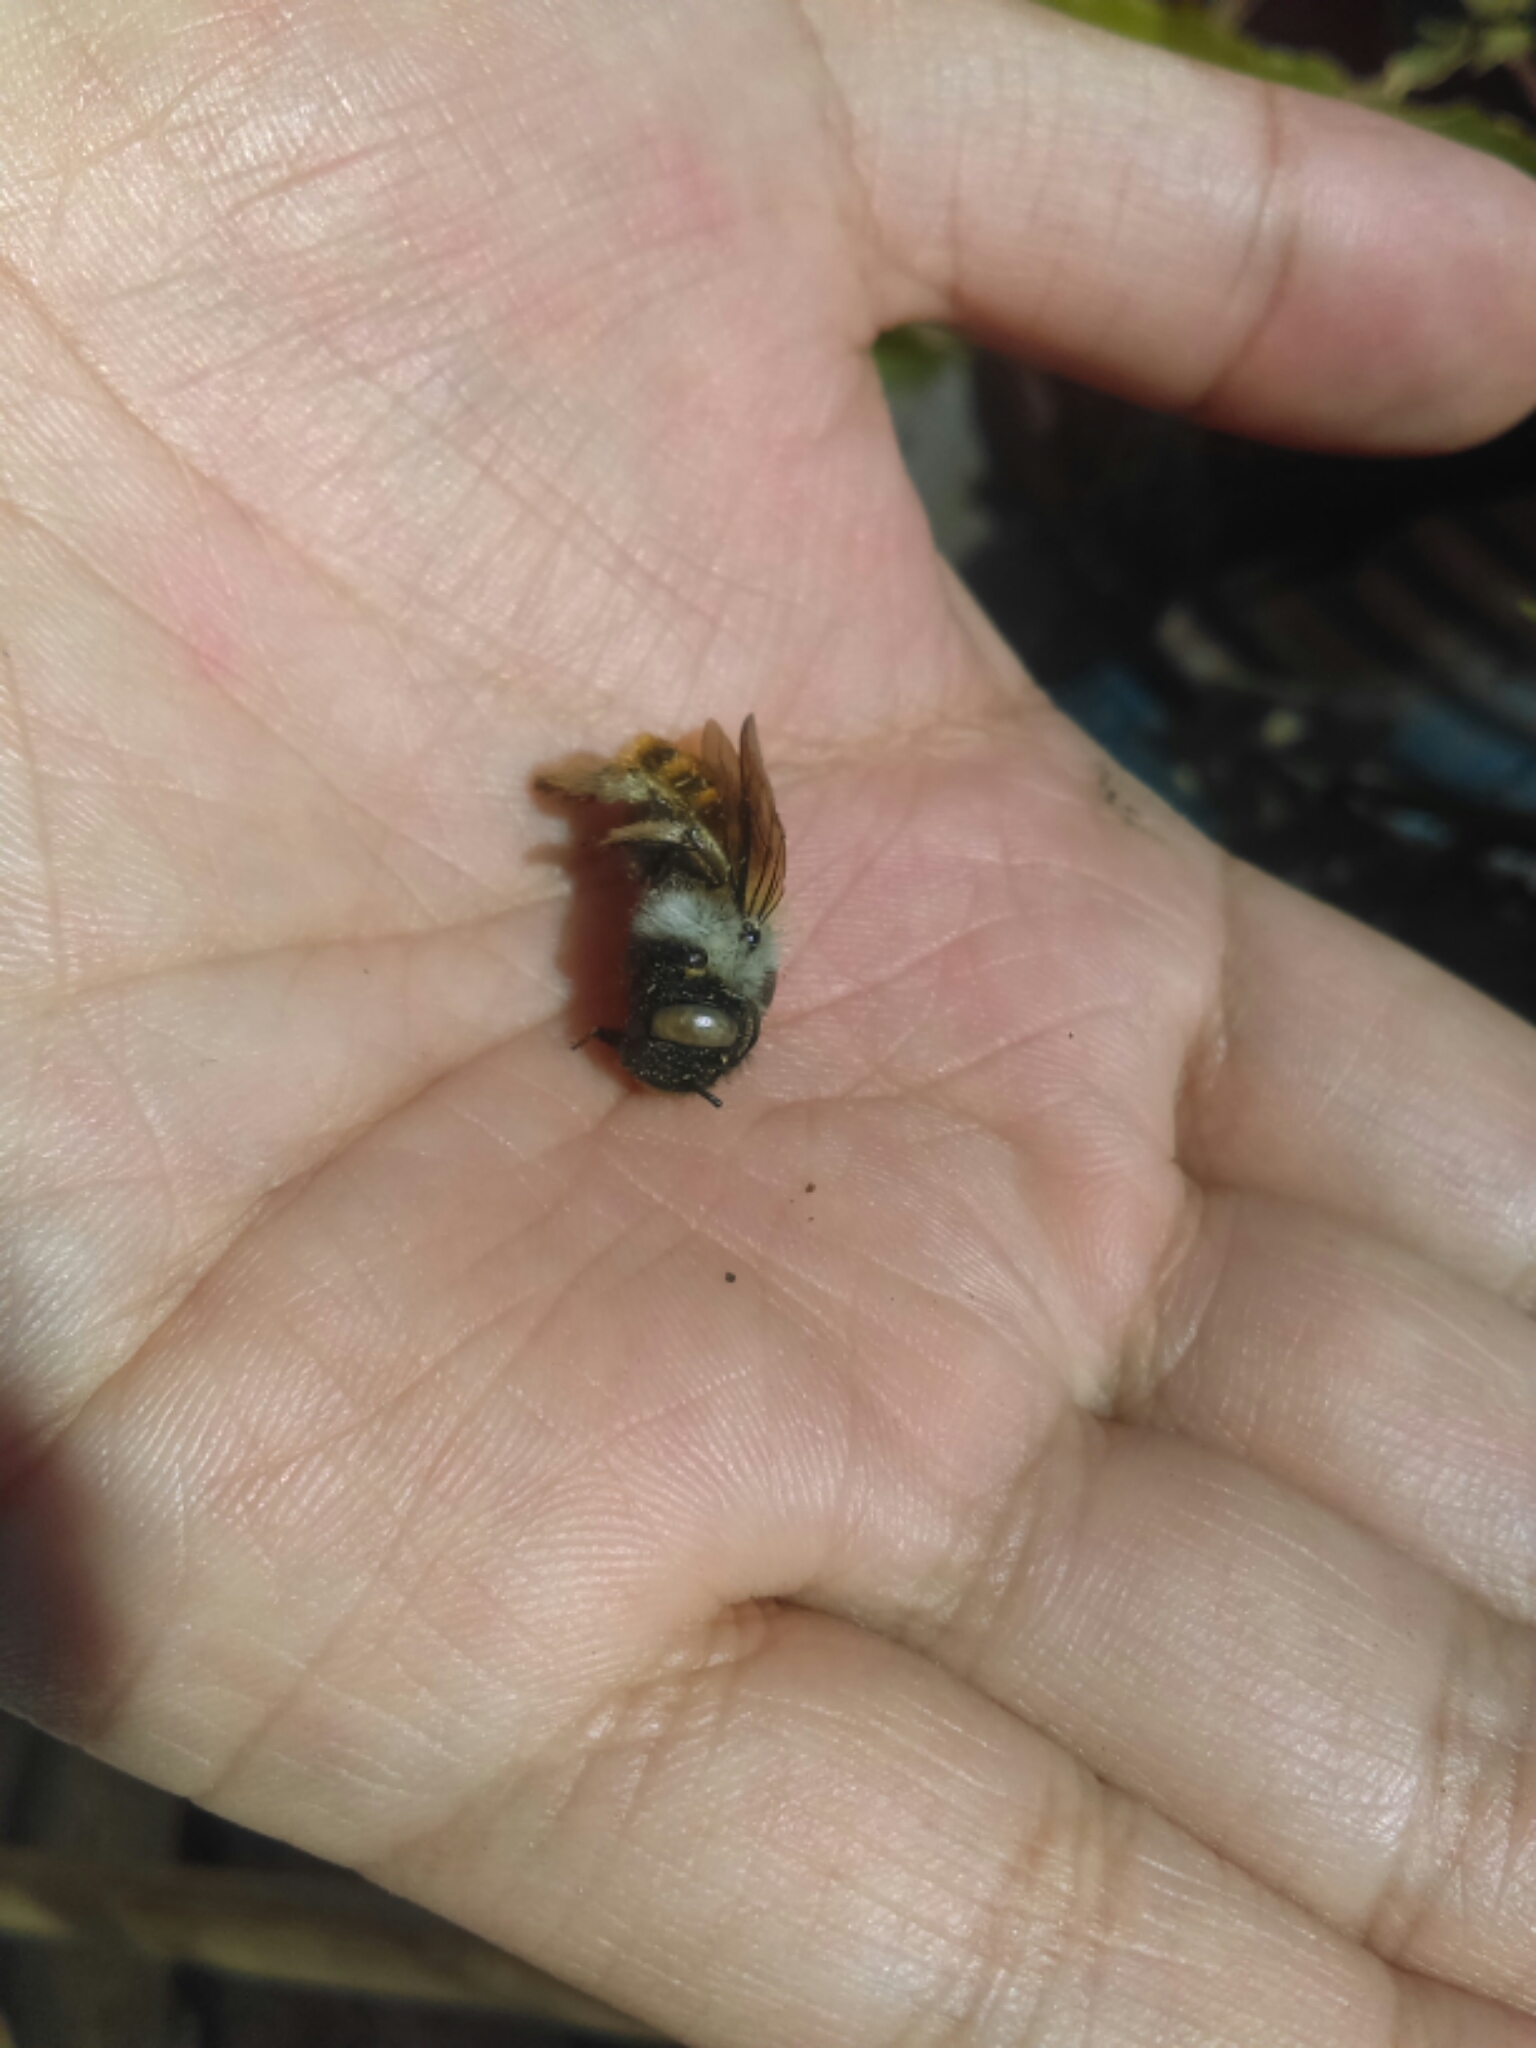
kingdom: Animalia
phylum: Arthropoda
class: Insecta
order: Hymenoptera
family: Apidae
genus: Xylocopa
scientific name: Xylocopa tabaniformis
